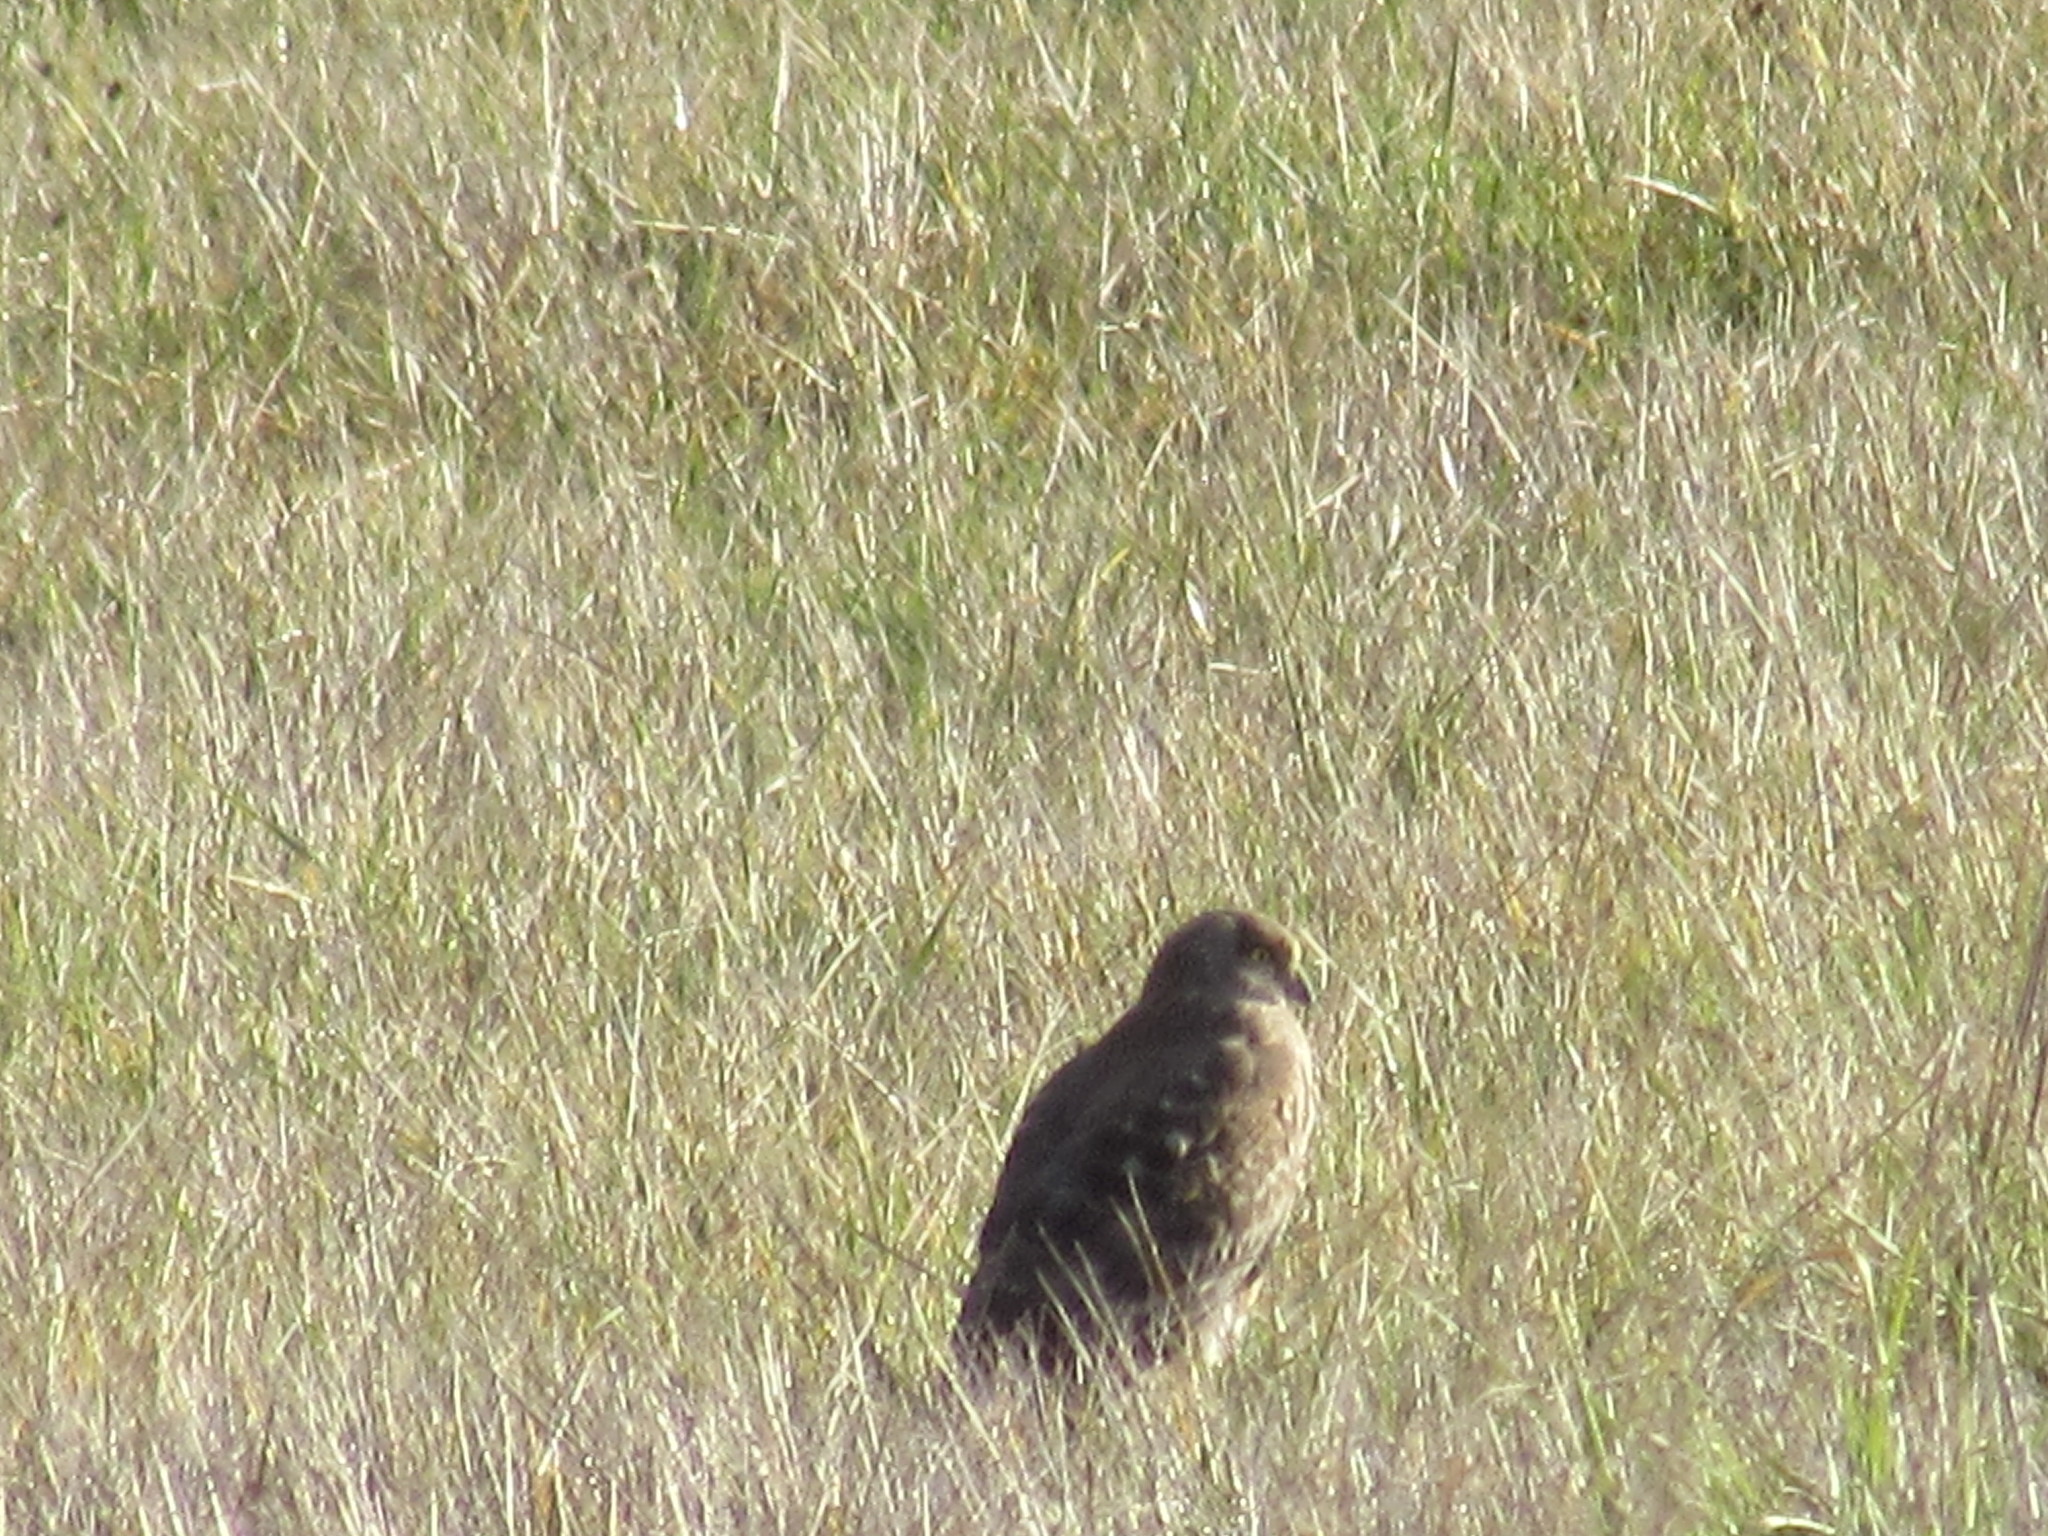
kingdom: Animalia
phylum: Chordata
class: Aves
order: Accipitriformes
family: Accipitridae
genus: Circus
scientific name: Circus cyaneus
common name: Hen harrier
